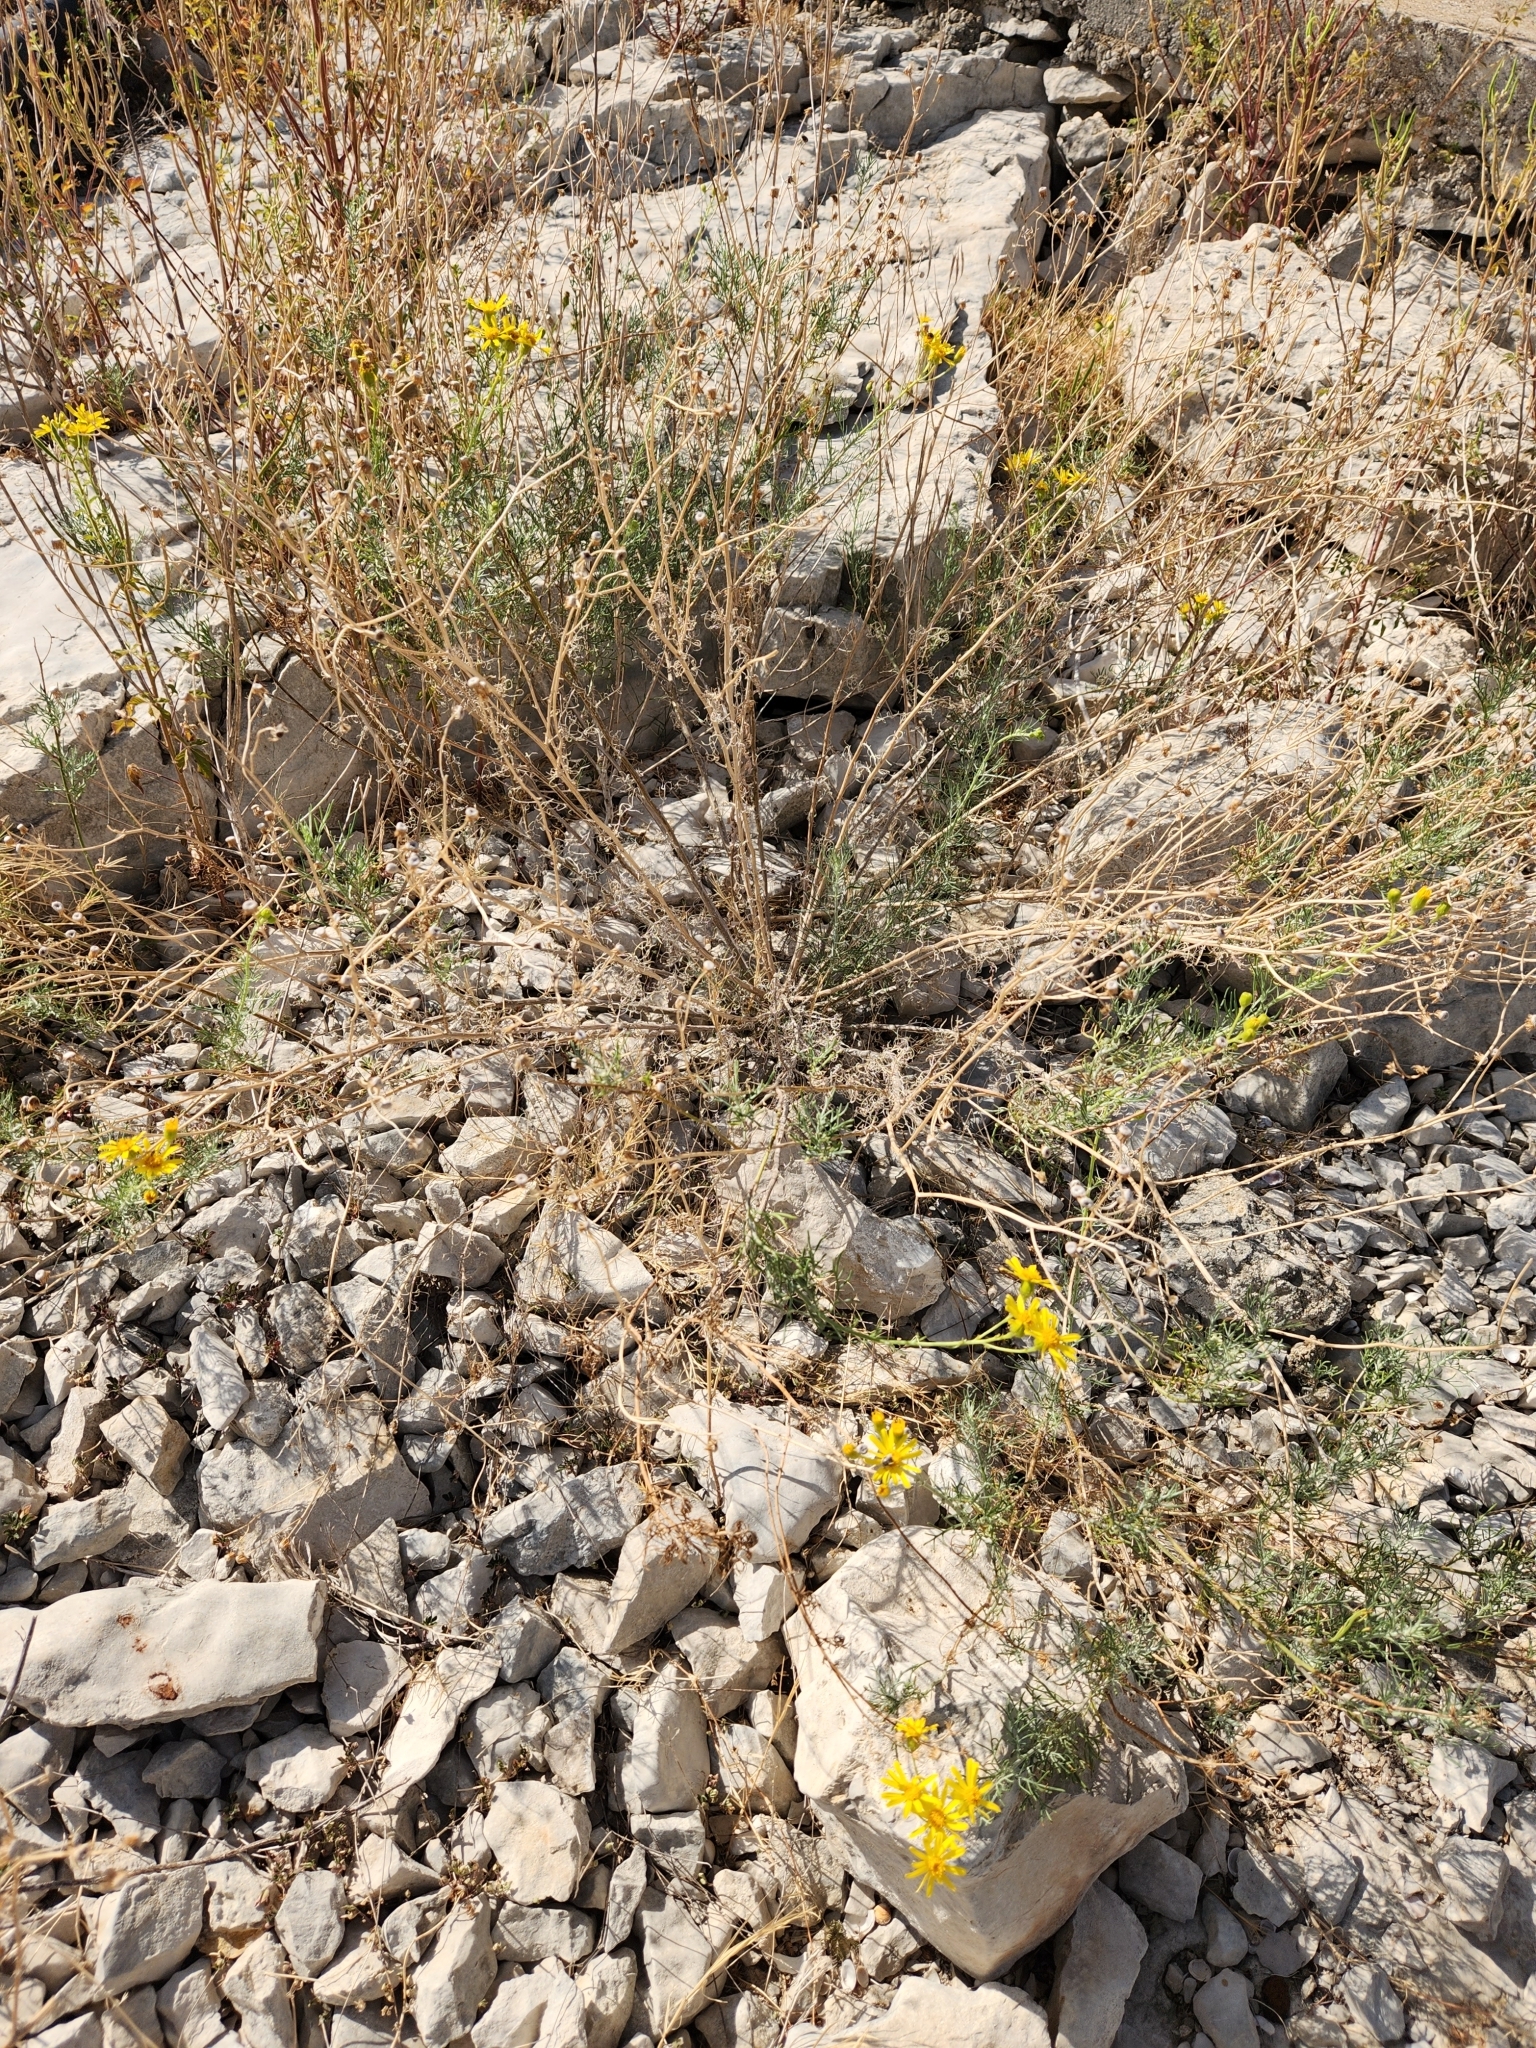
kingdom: Plantae
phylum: Tracheophyta
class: Magnoliopsida
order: Asterales
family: Asteraceae
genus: Senecio
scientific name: Senecio flaccidus
